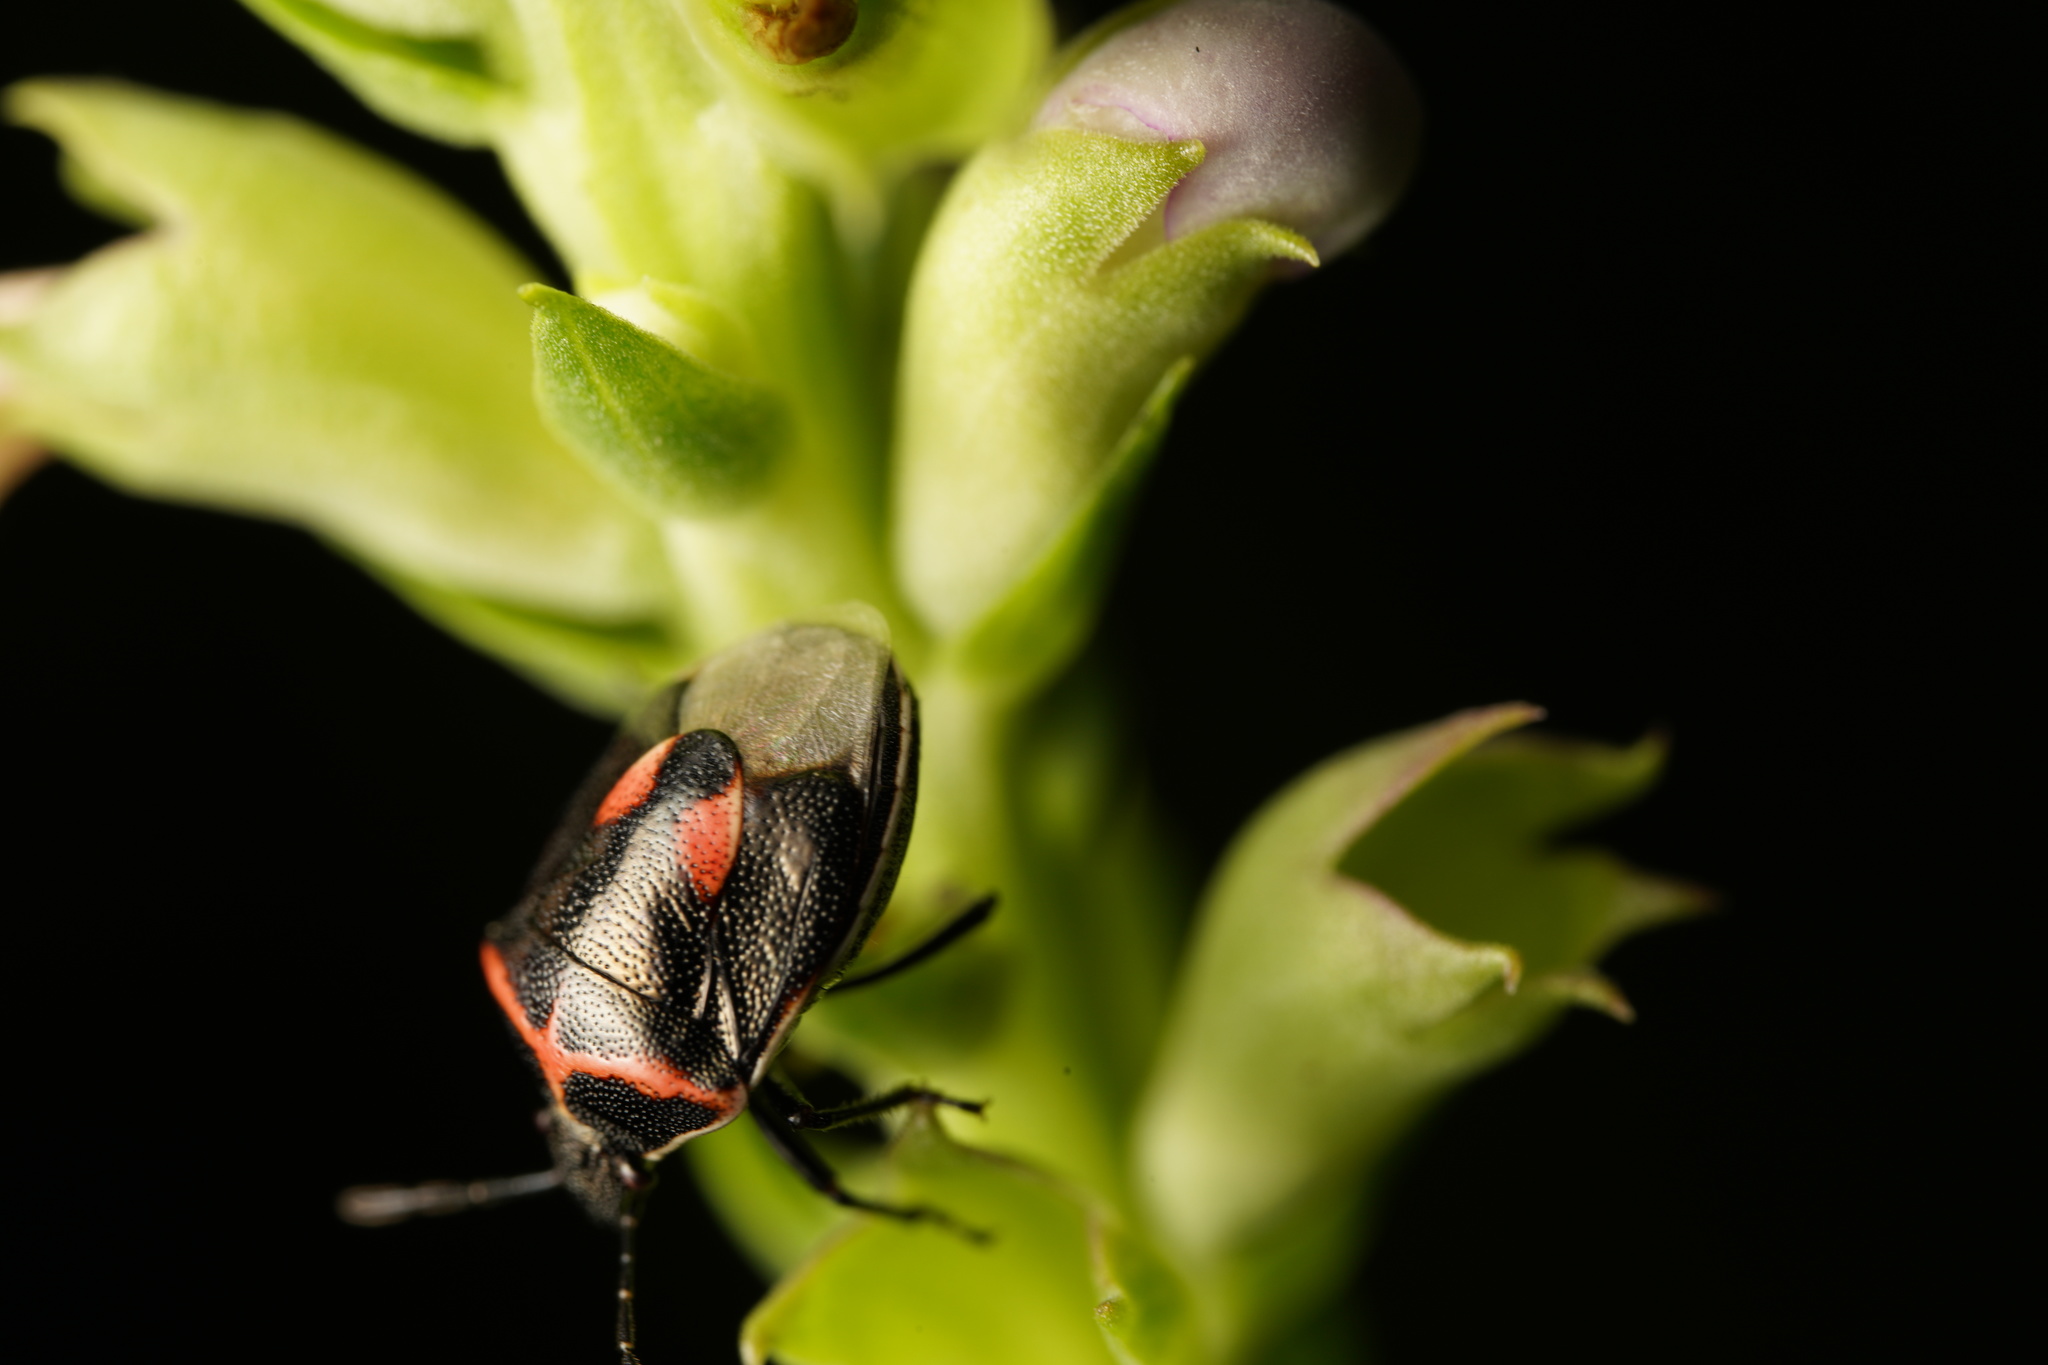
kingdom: Animalia
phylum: Arthropoda
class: Insecta
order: Hemiptera
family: Pentatomidae
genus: Cosmopepla
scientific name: Cosmopepla lintneriana
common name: Twice-stabbed stink bug
